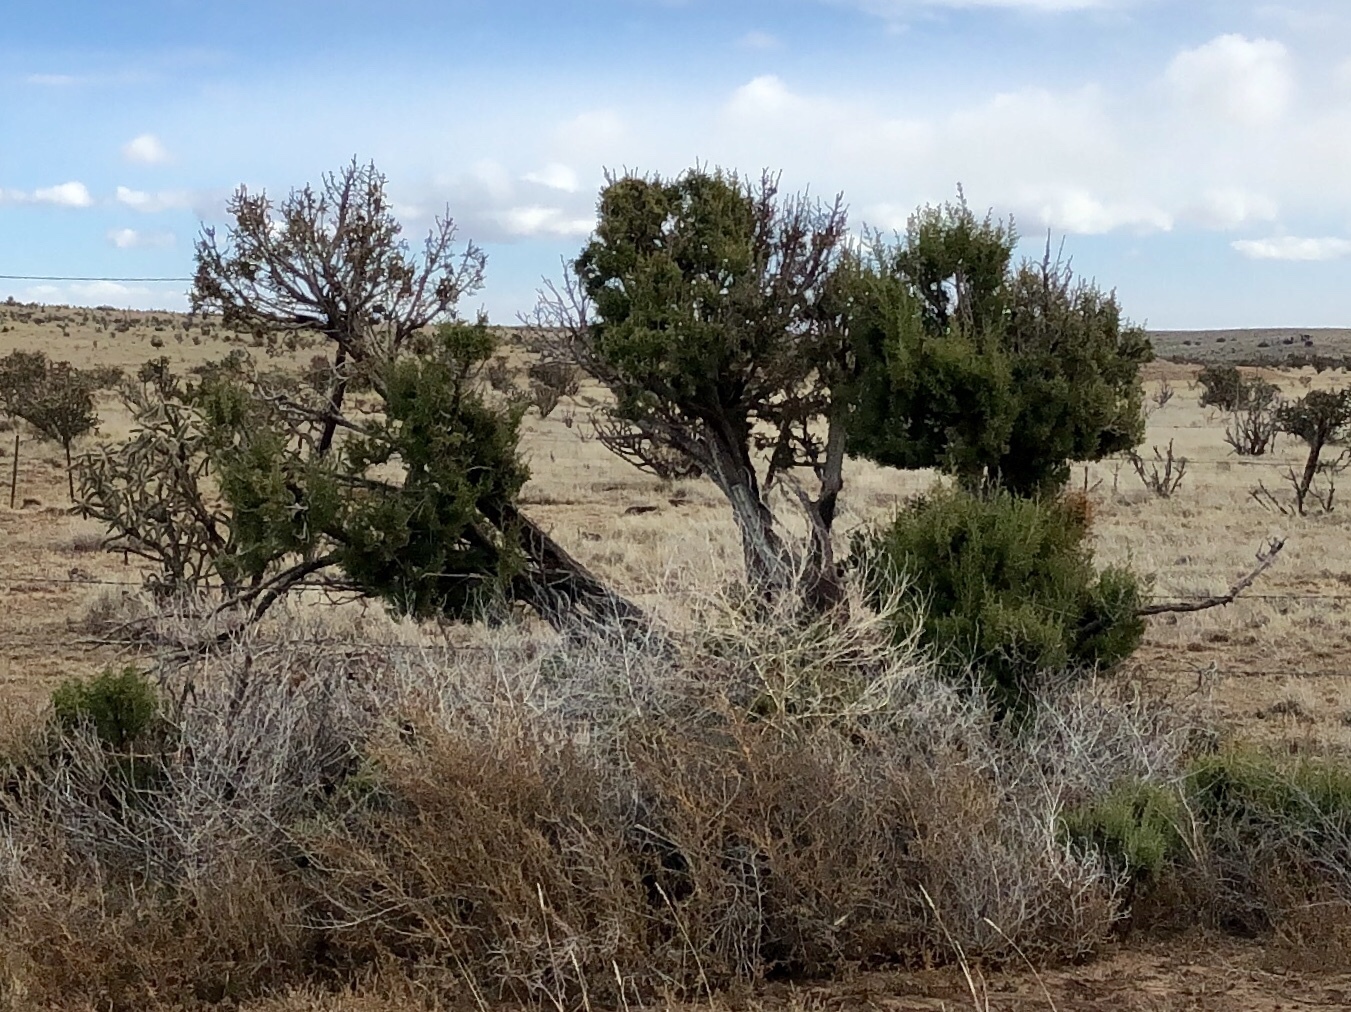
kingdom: Plantae
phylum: Tracheophyta
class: Pinopsida
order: Pinales
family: Cupressaceae
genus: Juniperus
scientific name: Juniperus deppeana
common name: Alligator juniper
